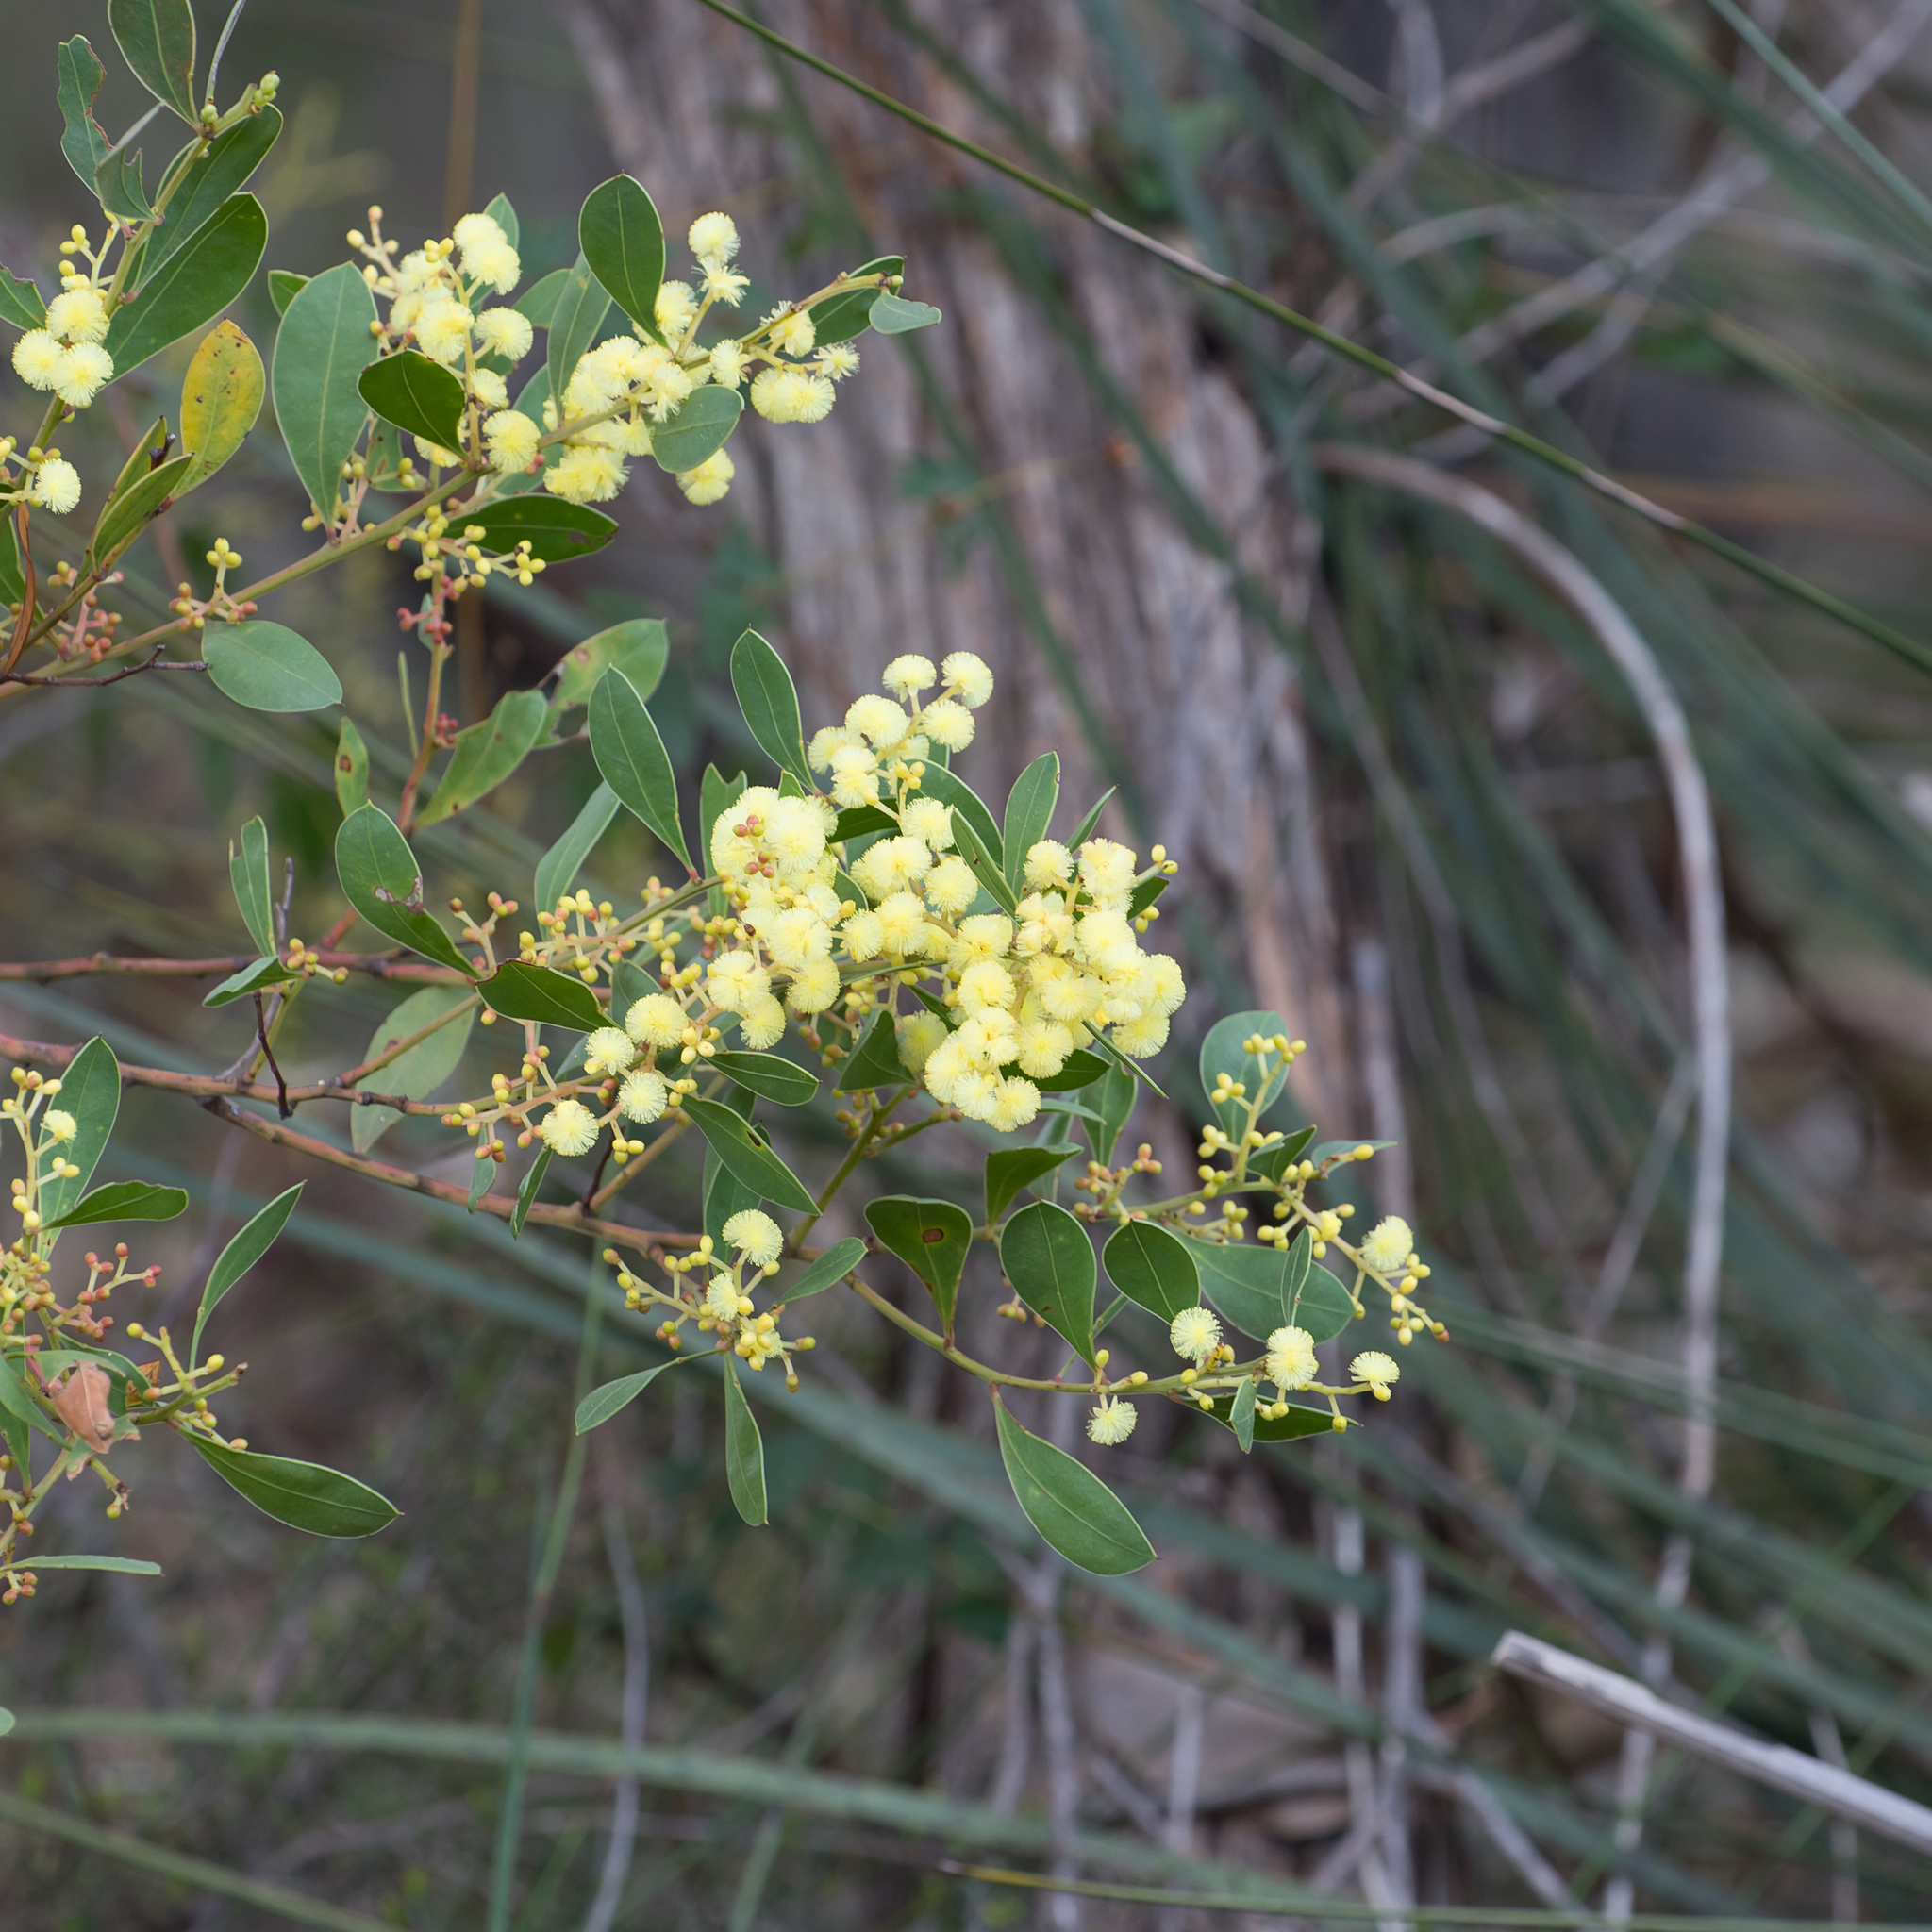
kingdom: Plantae
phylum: Tracheophyta
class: Magnoliopsida
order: Fabales
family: Fabaceae
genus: Acacia
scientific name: Acacia myrtifolia
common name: Myrtle wattle
